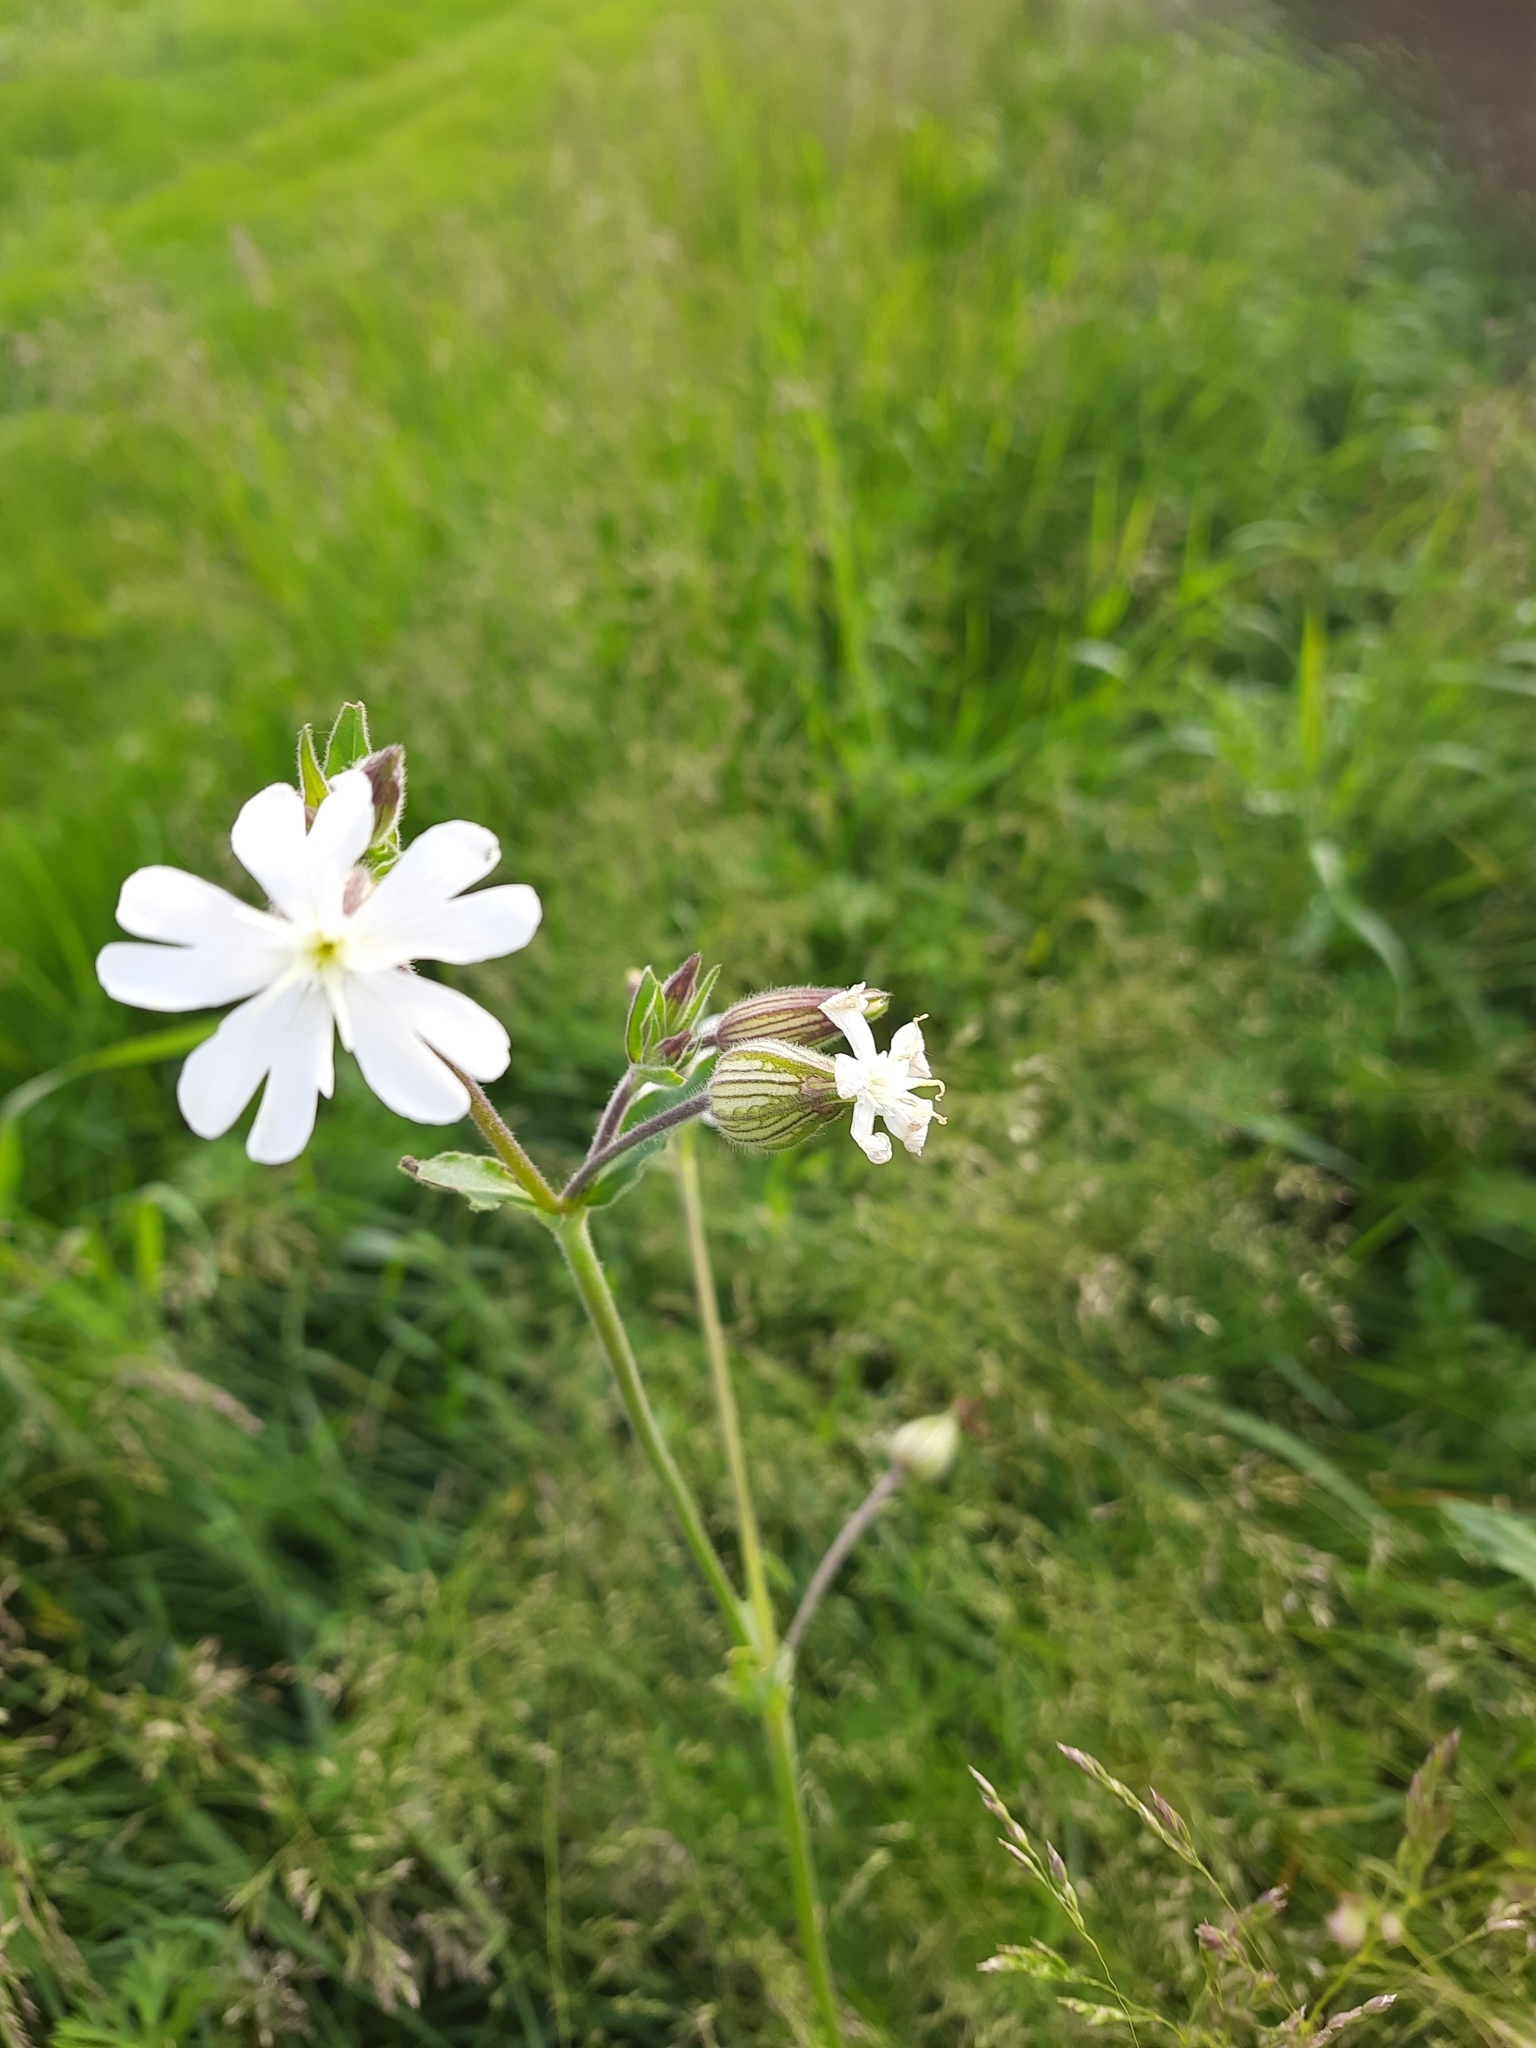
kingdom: Plantae
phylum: Tracheophyta
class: Magnoliopsida
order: Caryophyllales
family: Caryophyllaceae
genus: Silene
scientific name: Silene latifolia
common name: White campion
